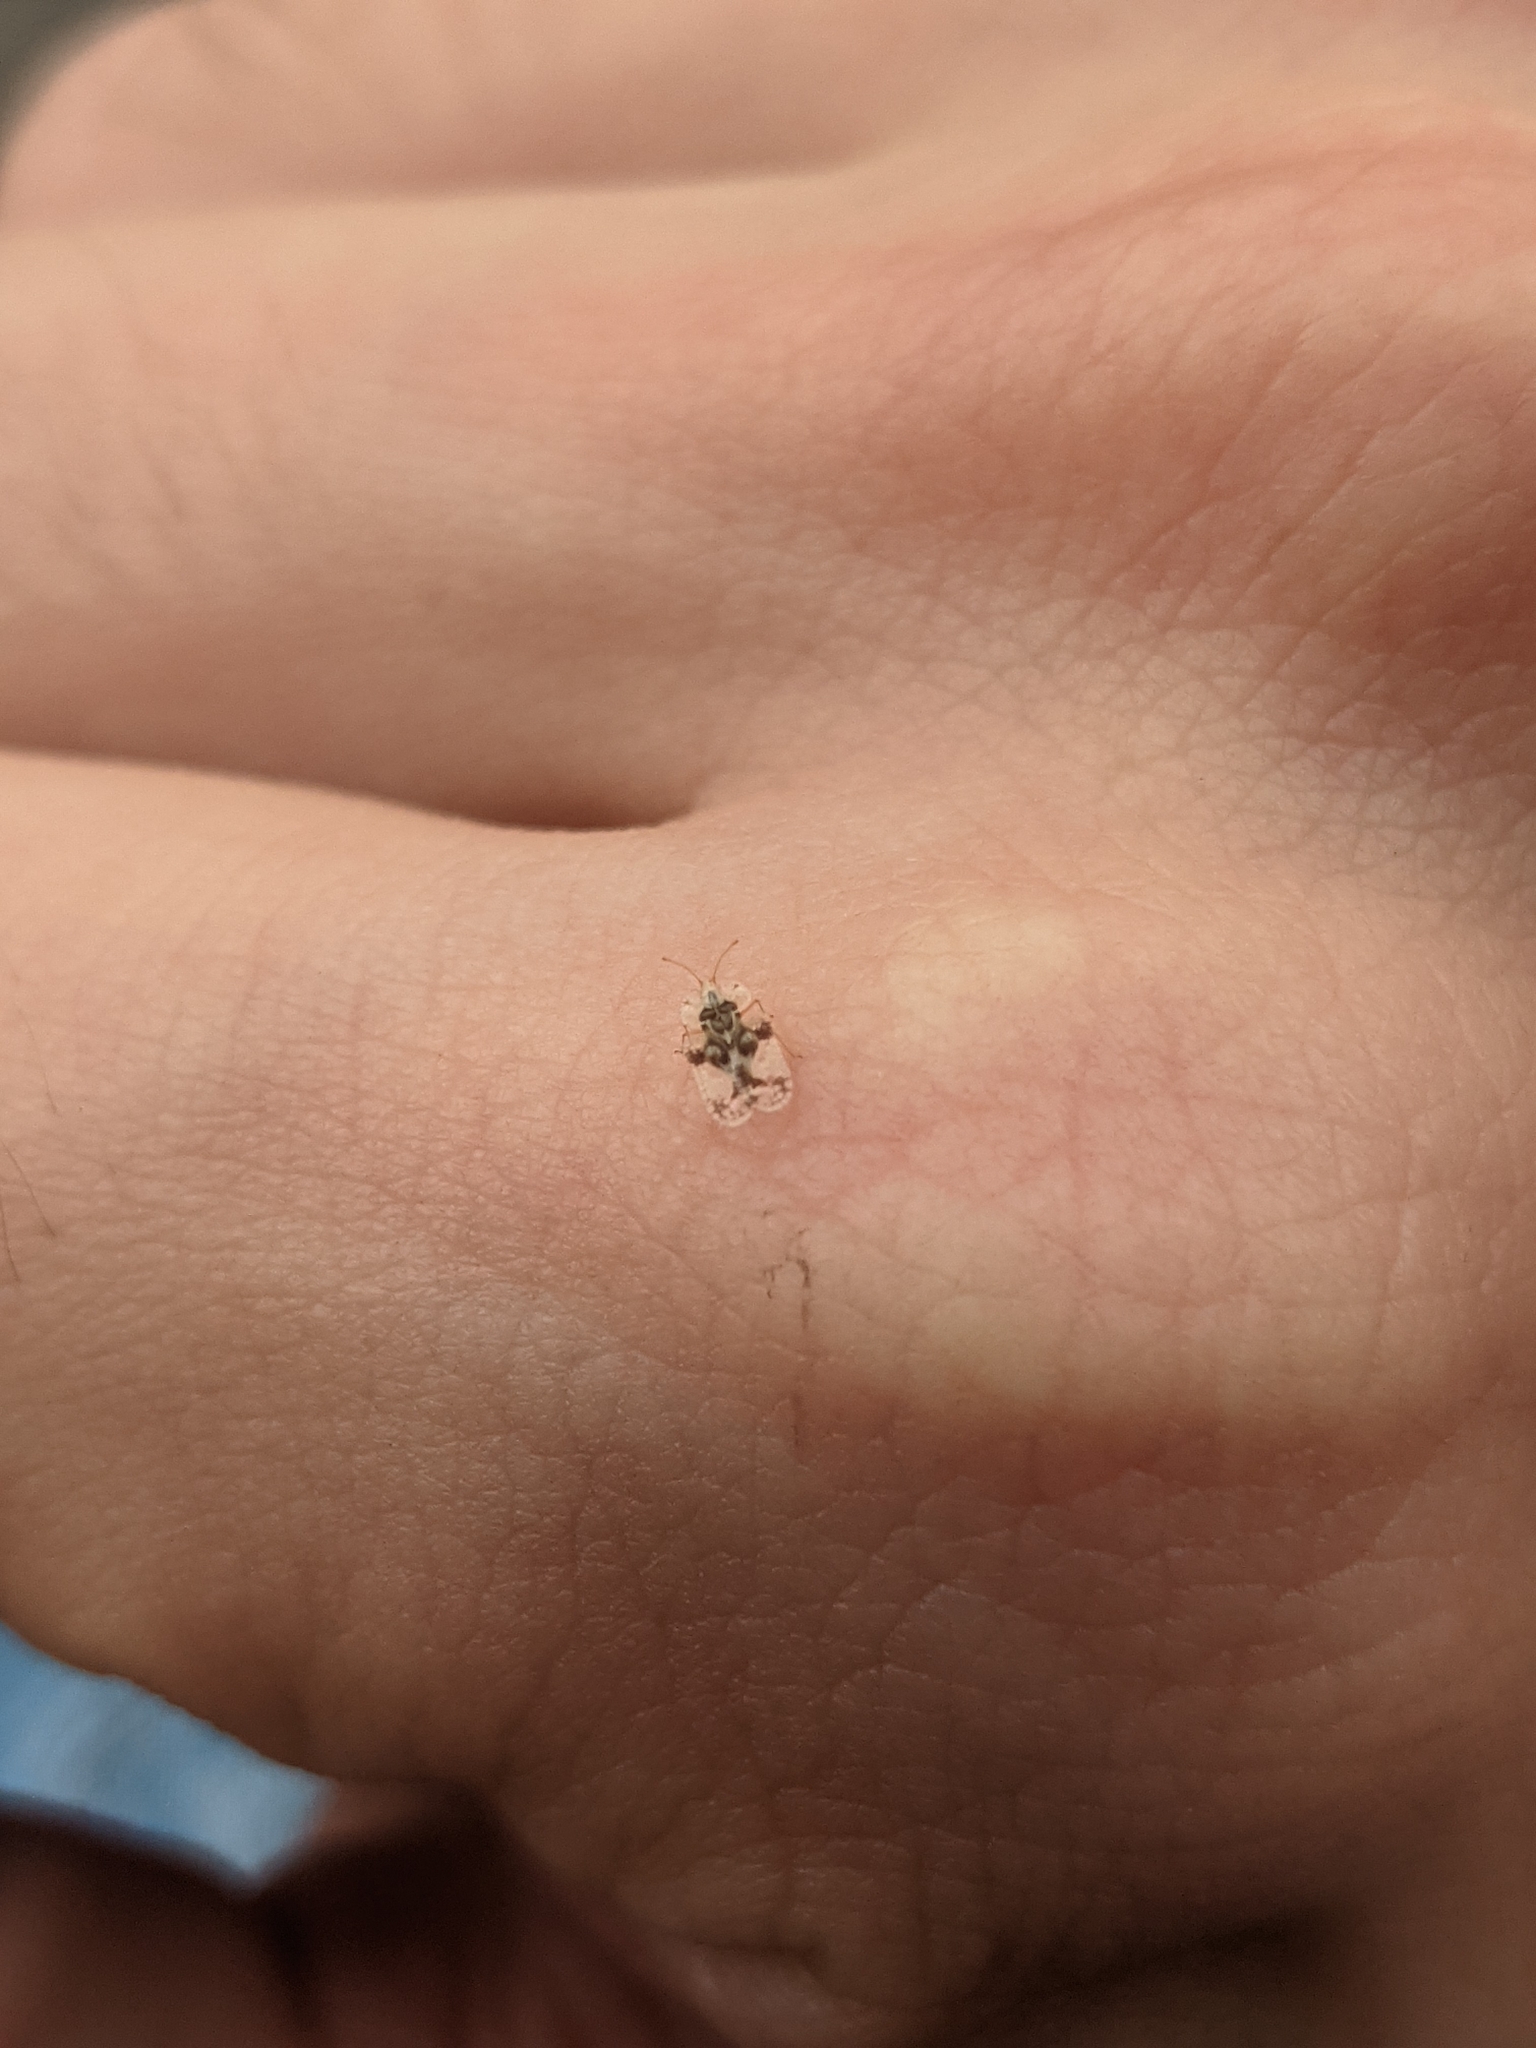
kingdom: Animalia
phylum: Arthropoda
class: Insecta
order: Hemiptera
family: Tingidae
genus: Corythucha
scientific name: Corythucha arcuata
